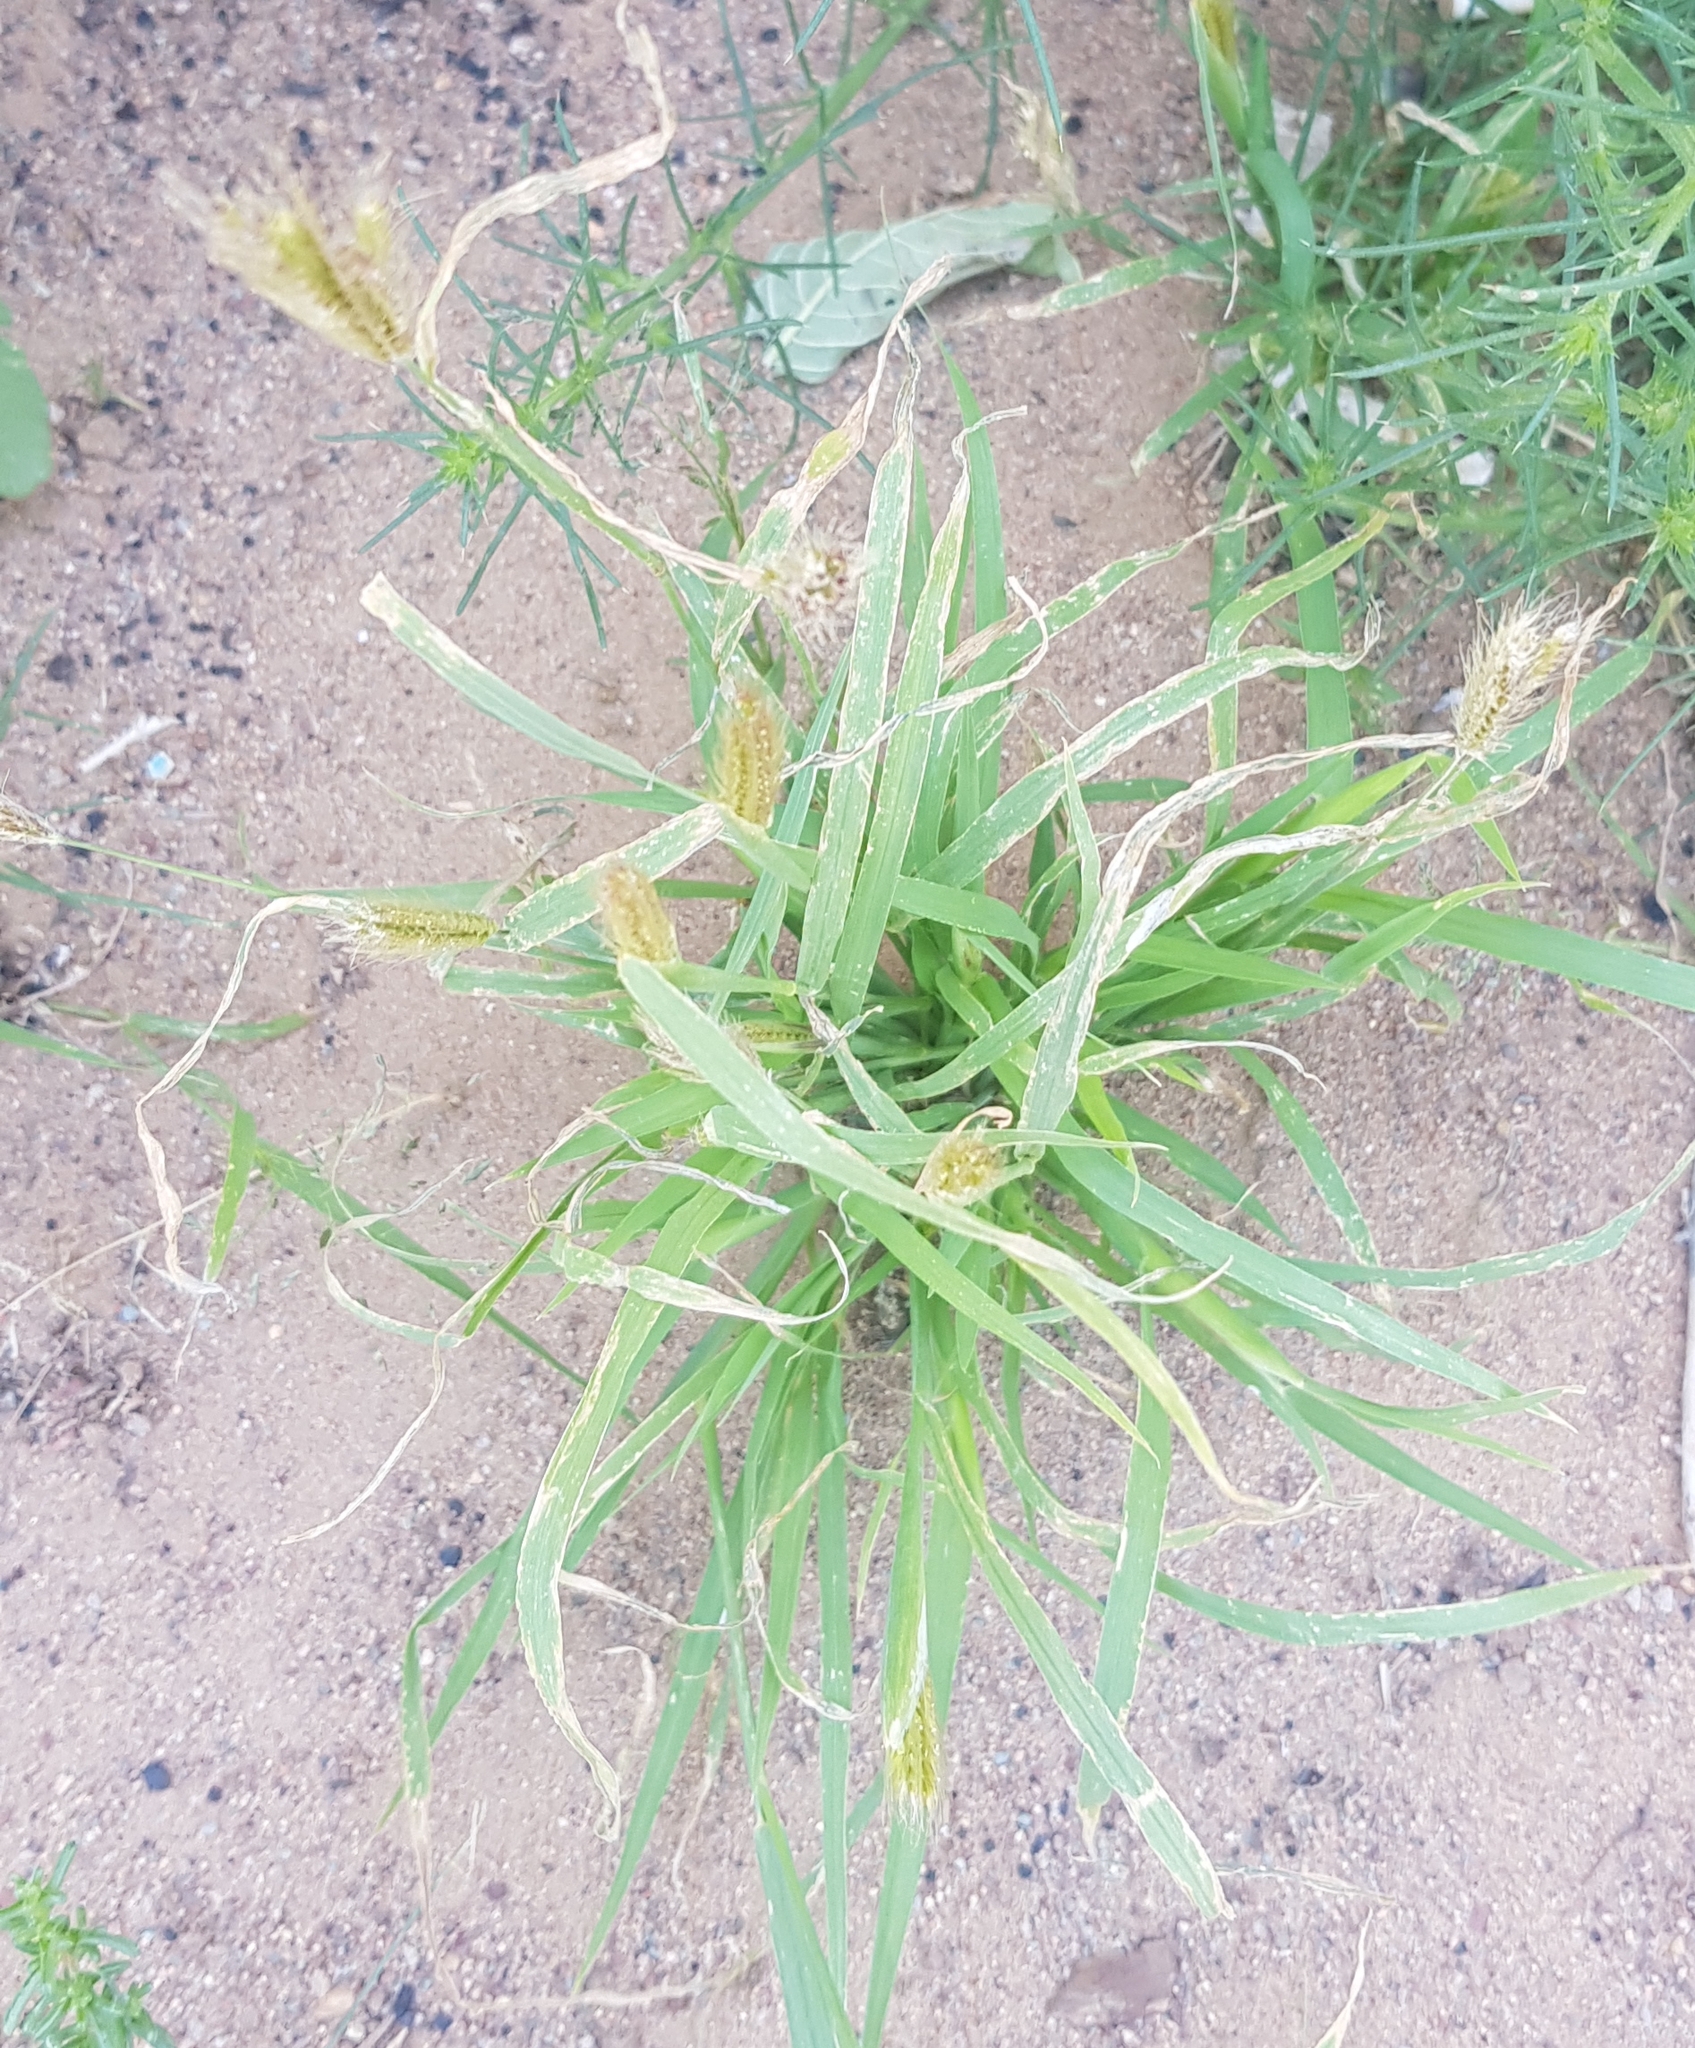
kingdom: Plantae
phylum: Tracheophyta
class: Liliopsida
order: Poales
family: Poaceae
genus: Setaria
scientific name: Setaria viridis
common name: Green bristlegrass
